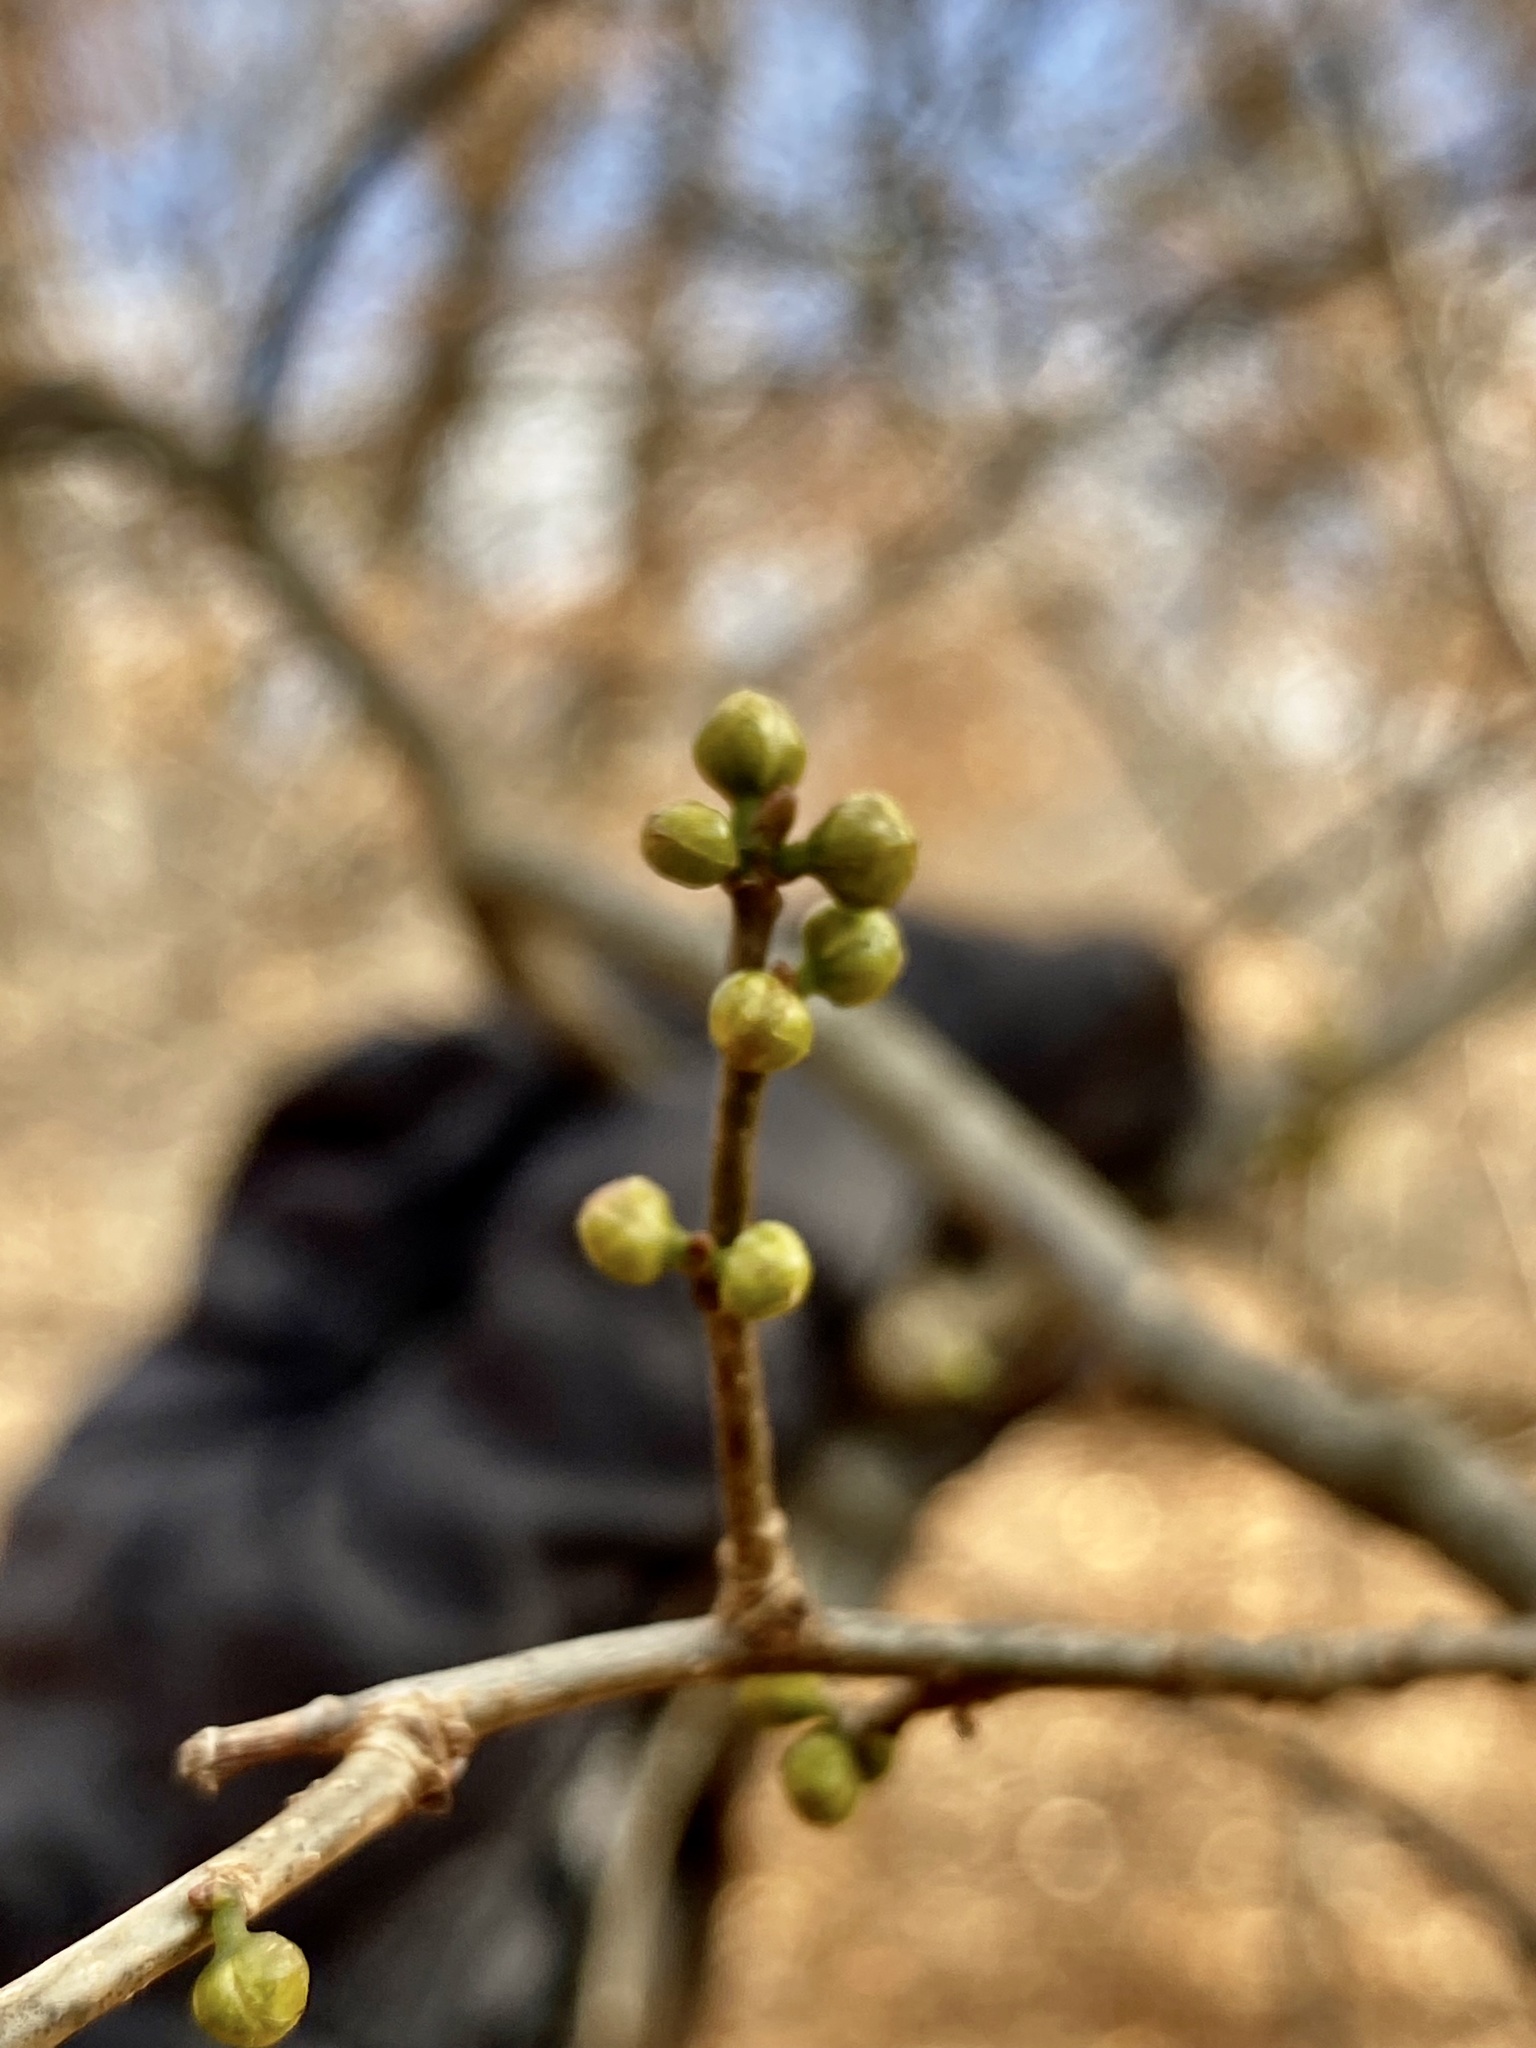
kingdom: Plantae
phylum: Tracheophyta
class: Magnoliopsida
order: Laurales
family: Lauraceae
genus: Lindera
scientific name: Lindera benzoin
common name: Spicebush
